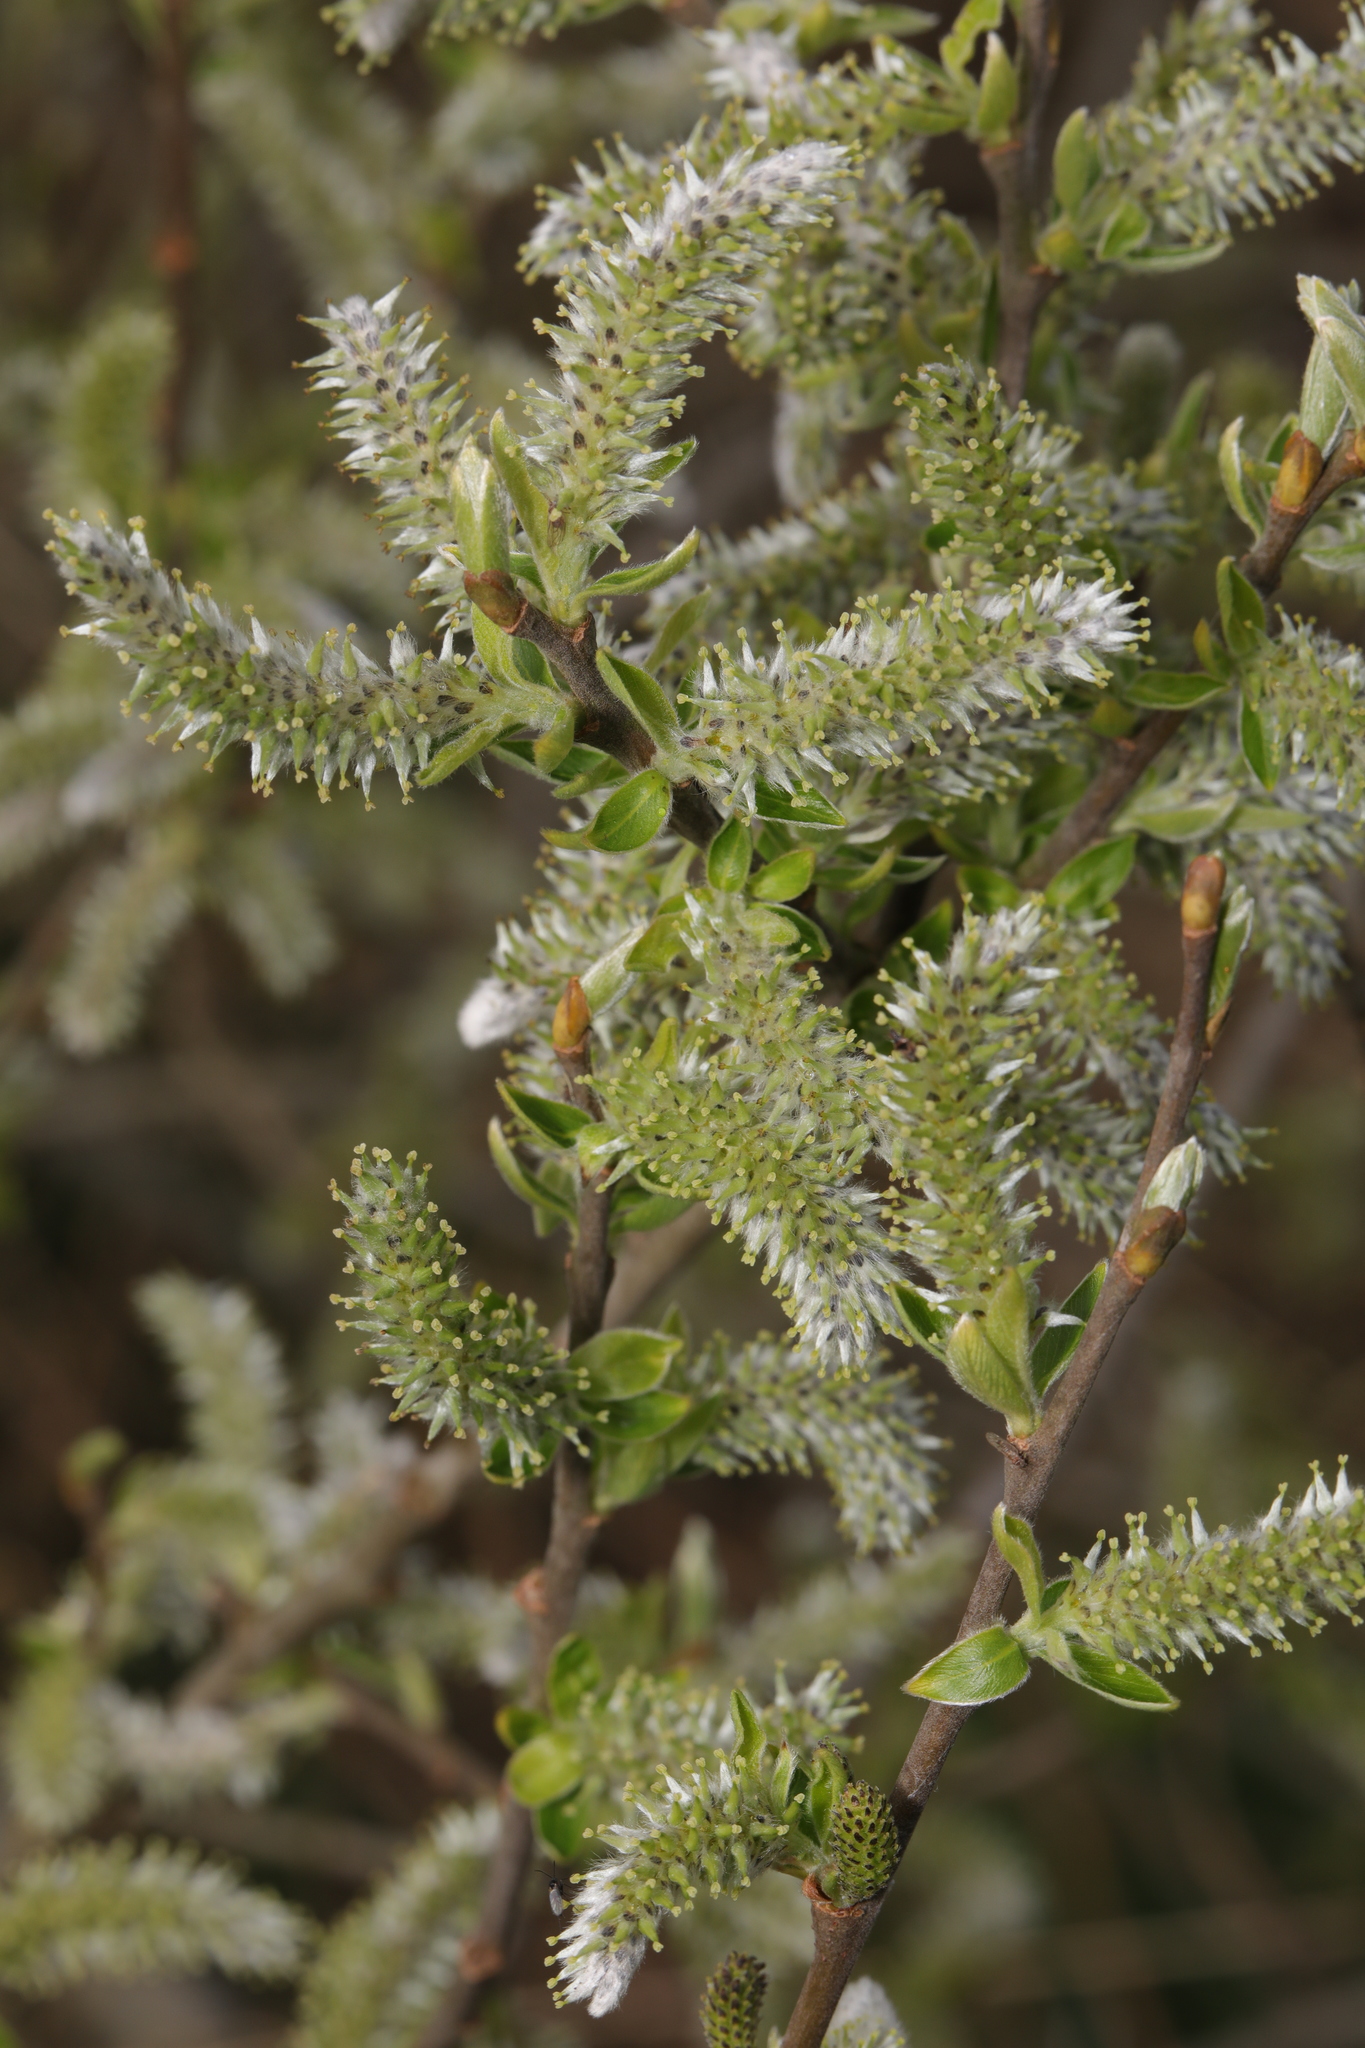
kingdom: Plantae
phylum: Tracheophyta
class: Magnoliopsida
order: Malpighiales
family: Salicaceae
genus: Salix
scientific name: Salix cinerea
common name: Common sallow
